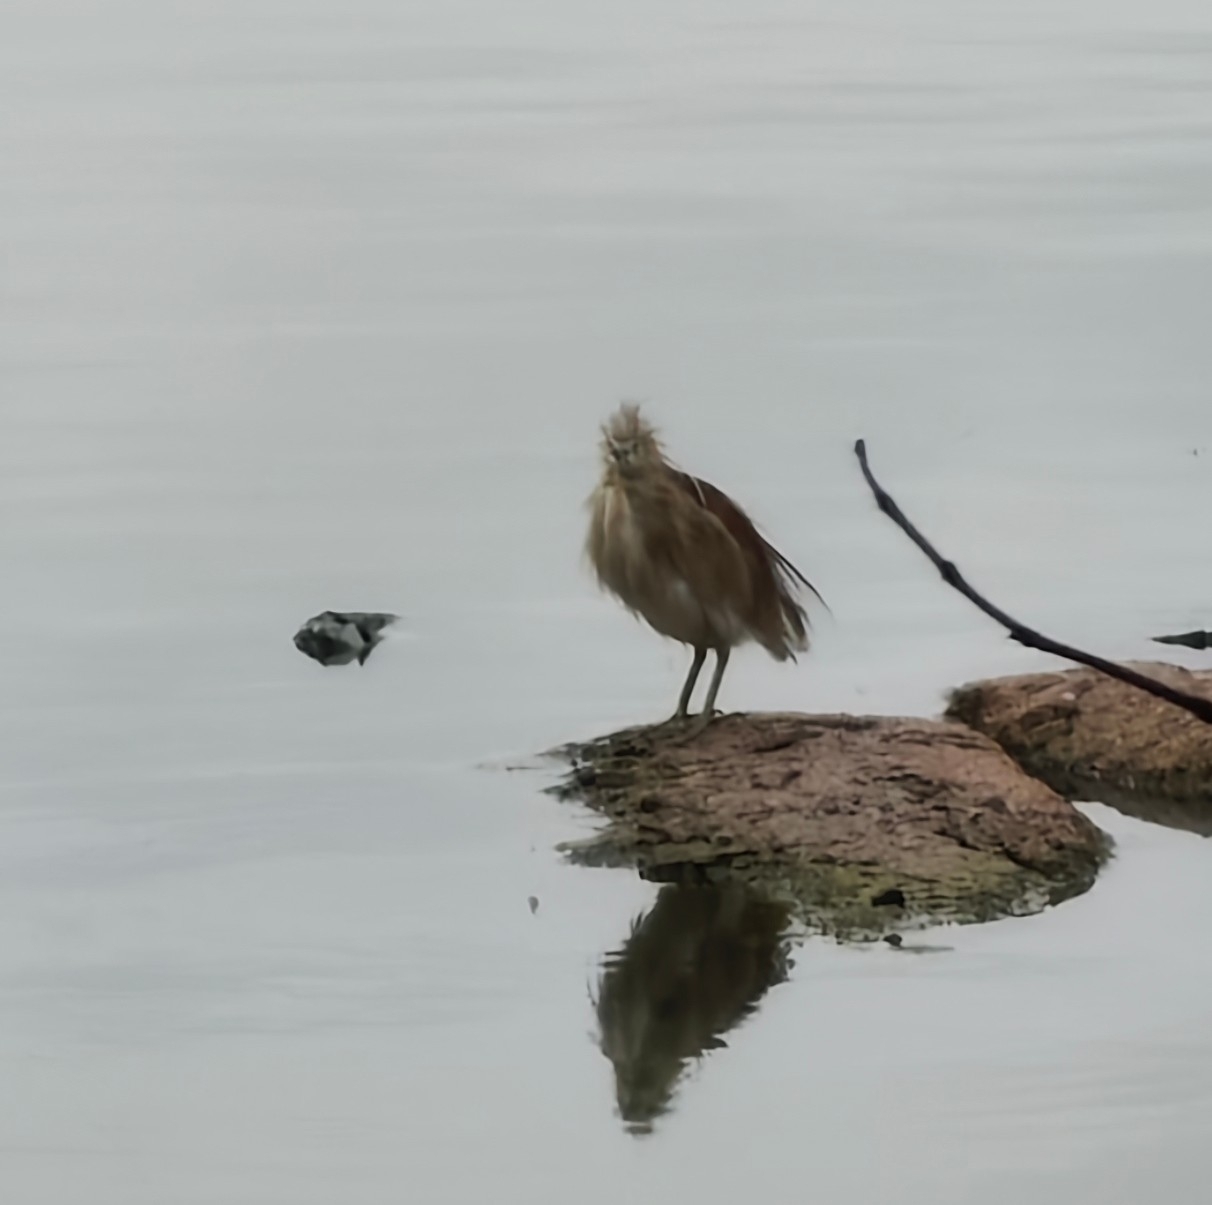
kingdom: Animalia
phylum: Chordata
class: Aves
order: Pelecaniformes
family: Ardeidae
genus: Ardeola
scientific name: Ardeola grayii
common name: Indian pond heron
